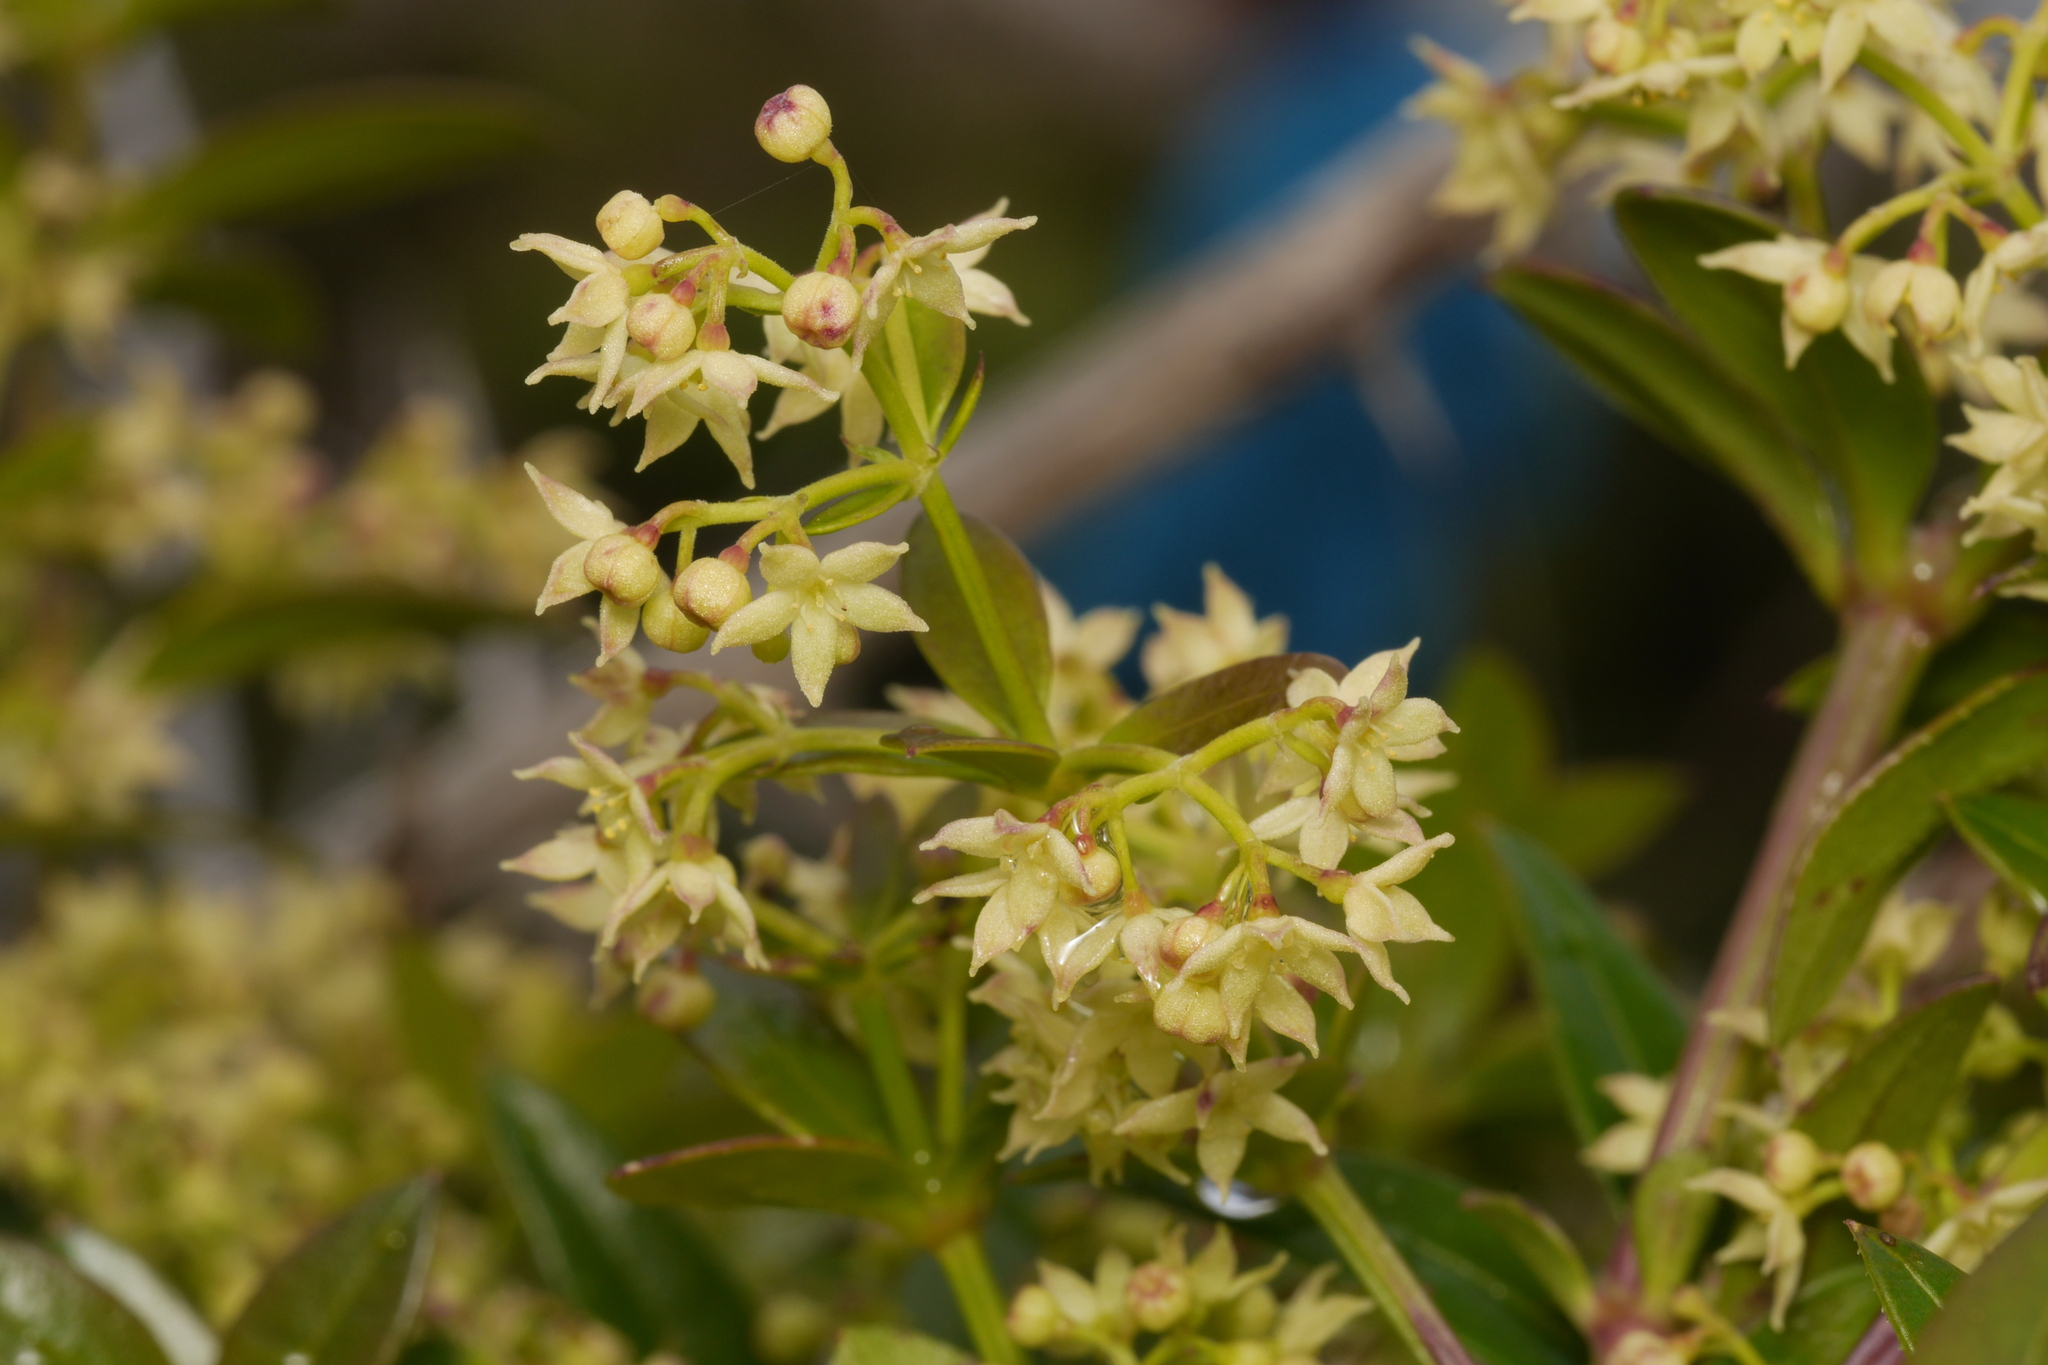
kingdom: Plantae
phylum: Tracheophyta
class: Magnoliopsida
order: Gentianales
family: Rubiaceae
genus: Rubia
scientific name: Rubia peregrina
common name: Wild madder
